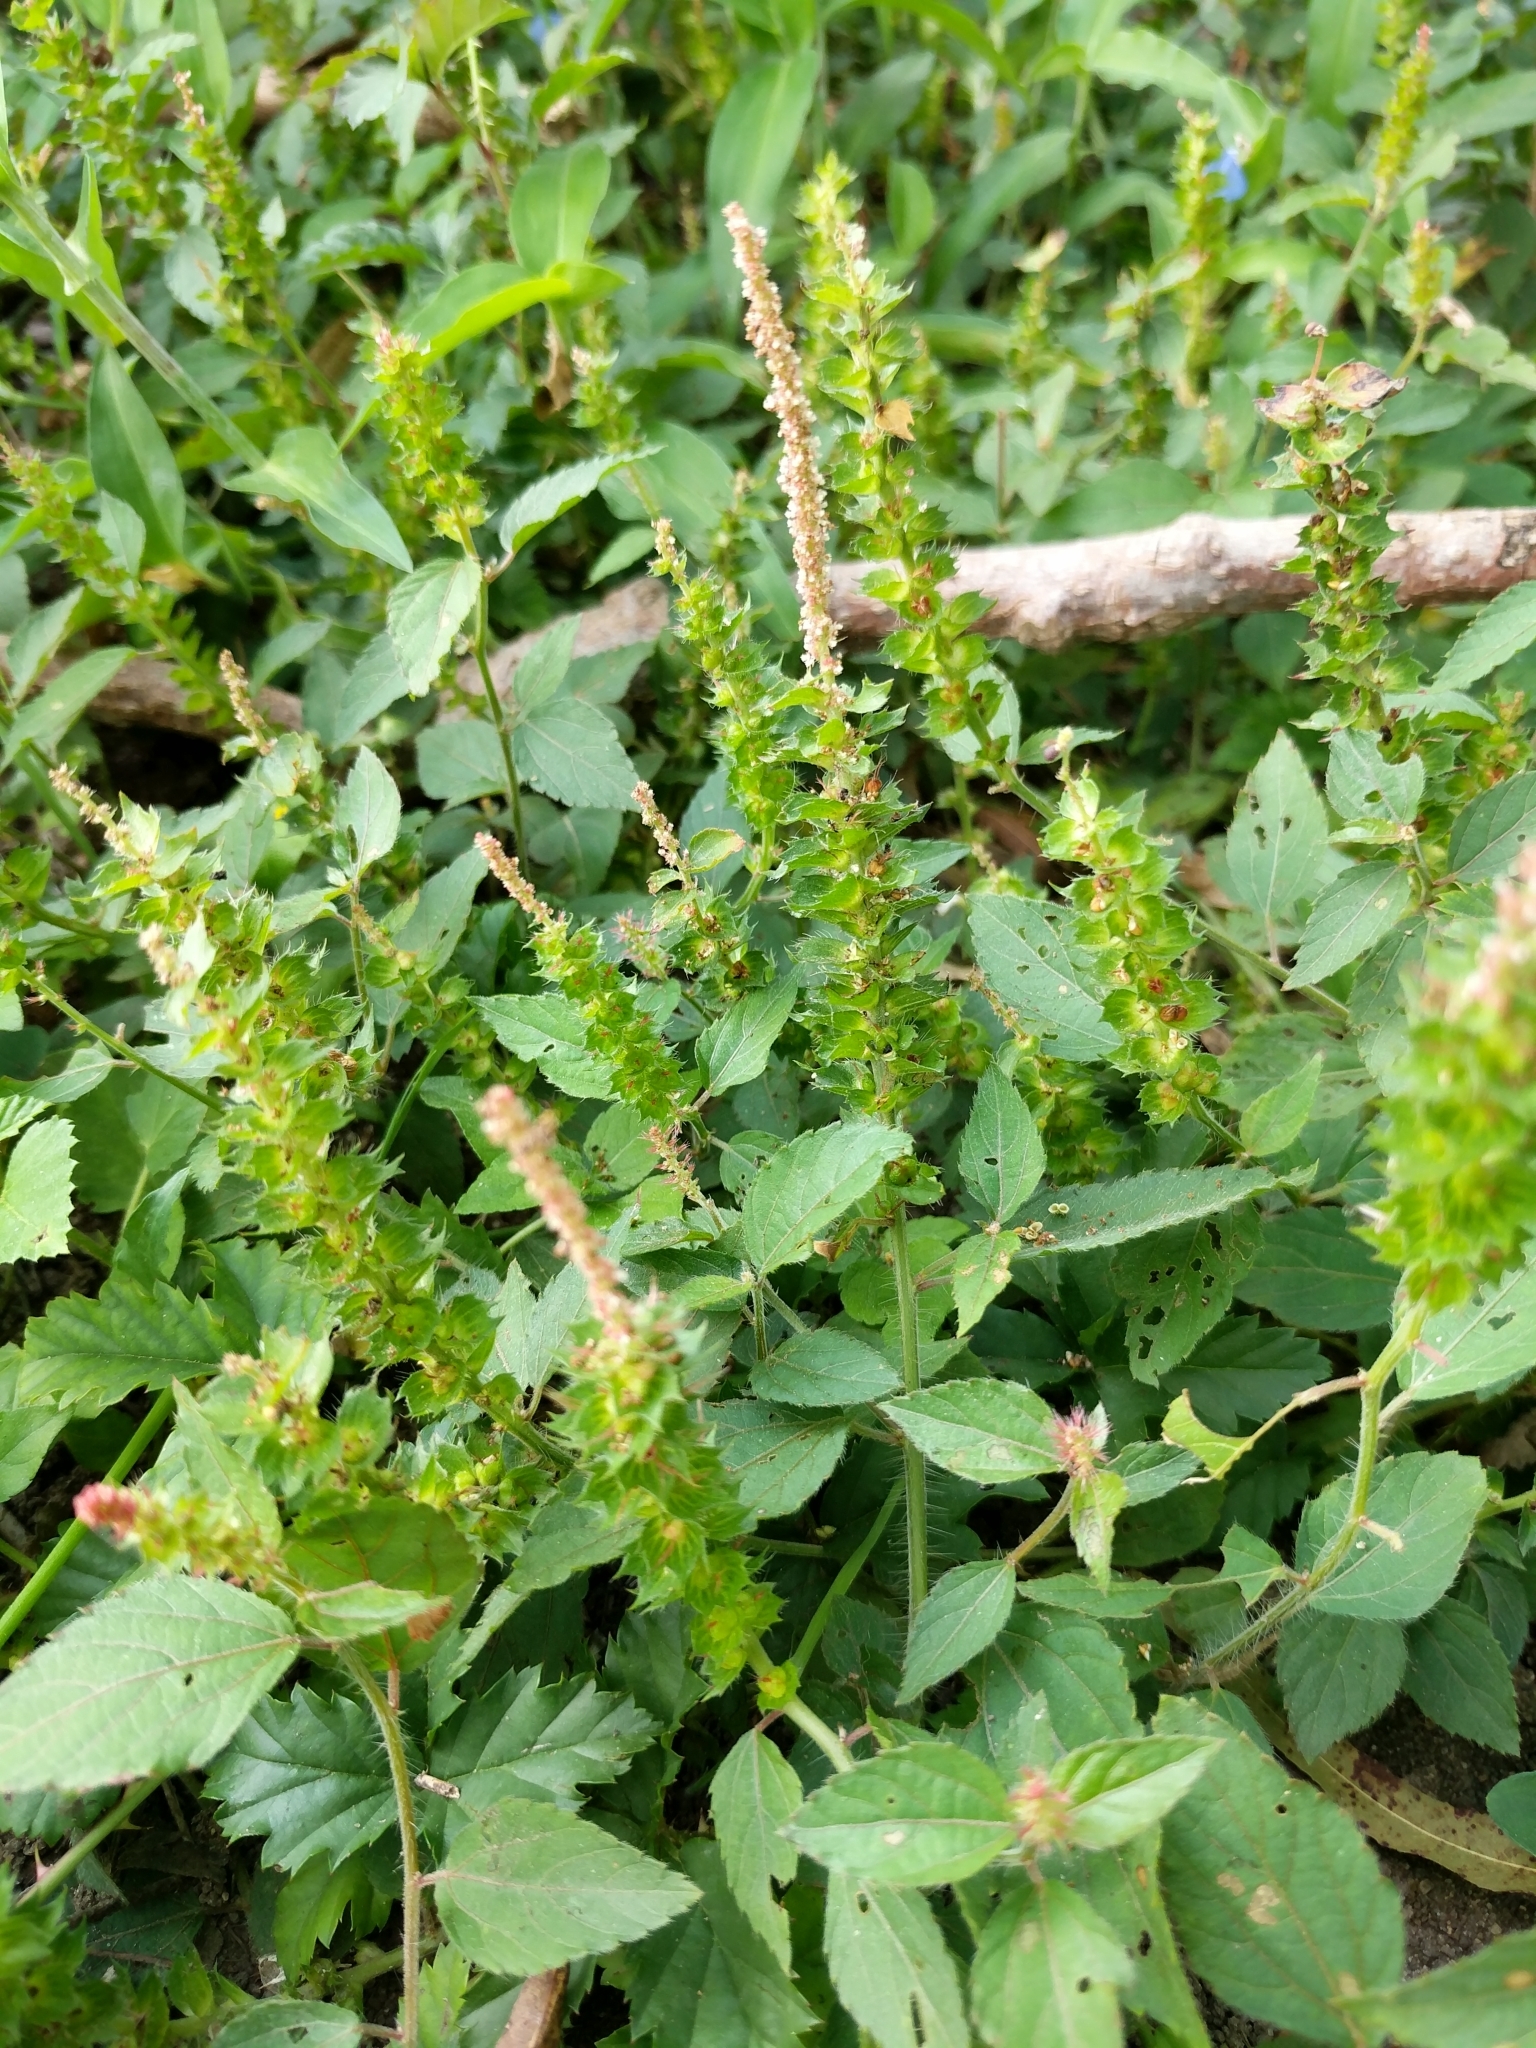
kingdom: Plantae
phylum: Tracheophyta
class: Magnoliopsida
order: Malpighiales
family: Euphorbiaceae
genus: Acalypha
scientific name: Acalypha phleoides
